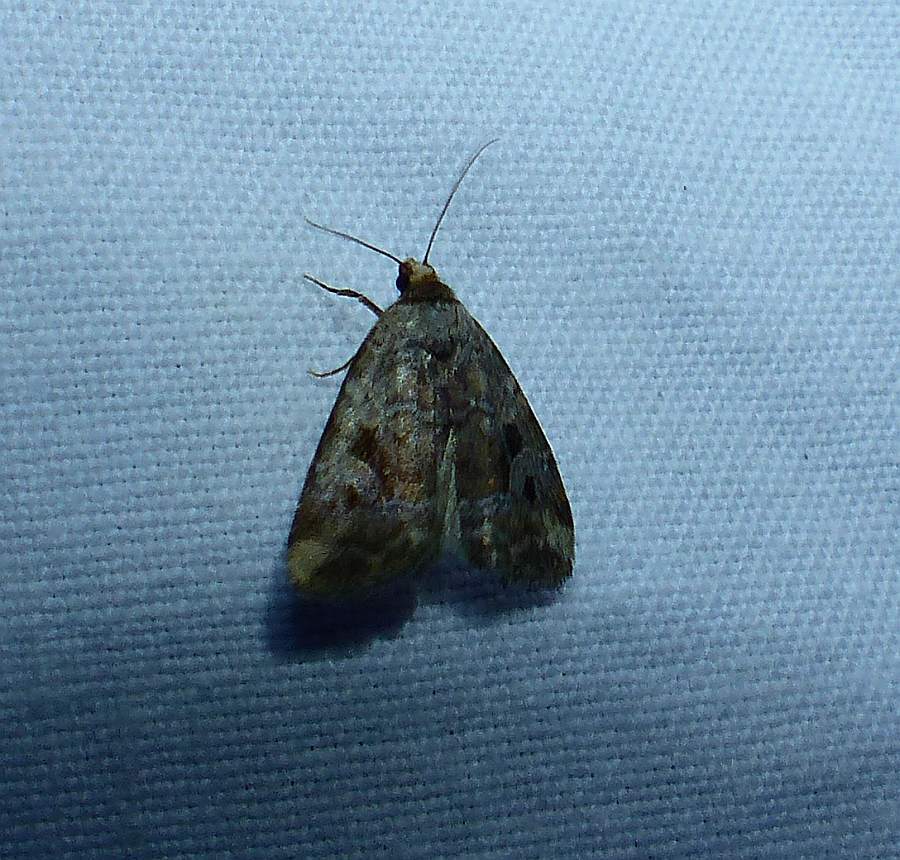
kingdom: Animalia
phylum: Arthropoda
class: Insecta
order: Lepidoptera
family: Noctuidae
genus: Elaphria
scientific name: Elaphria alapallida
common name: Pale-winged midget
